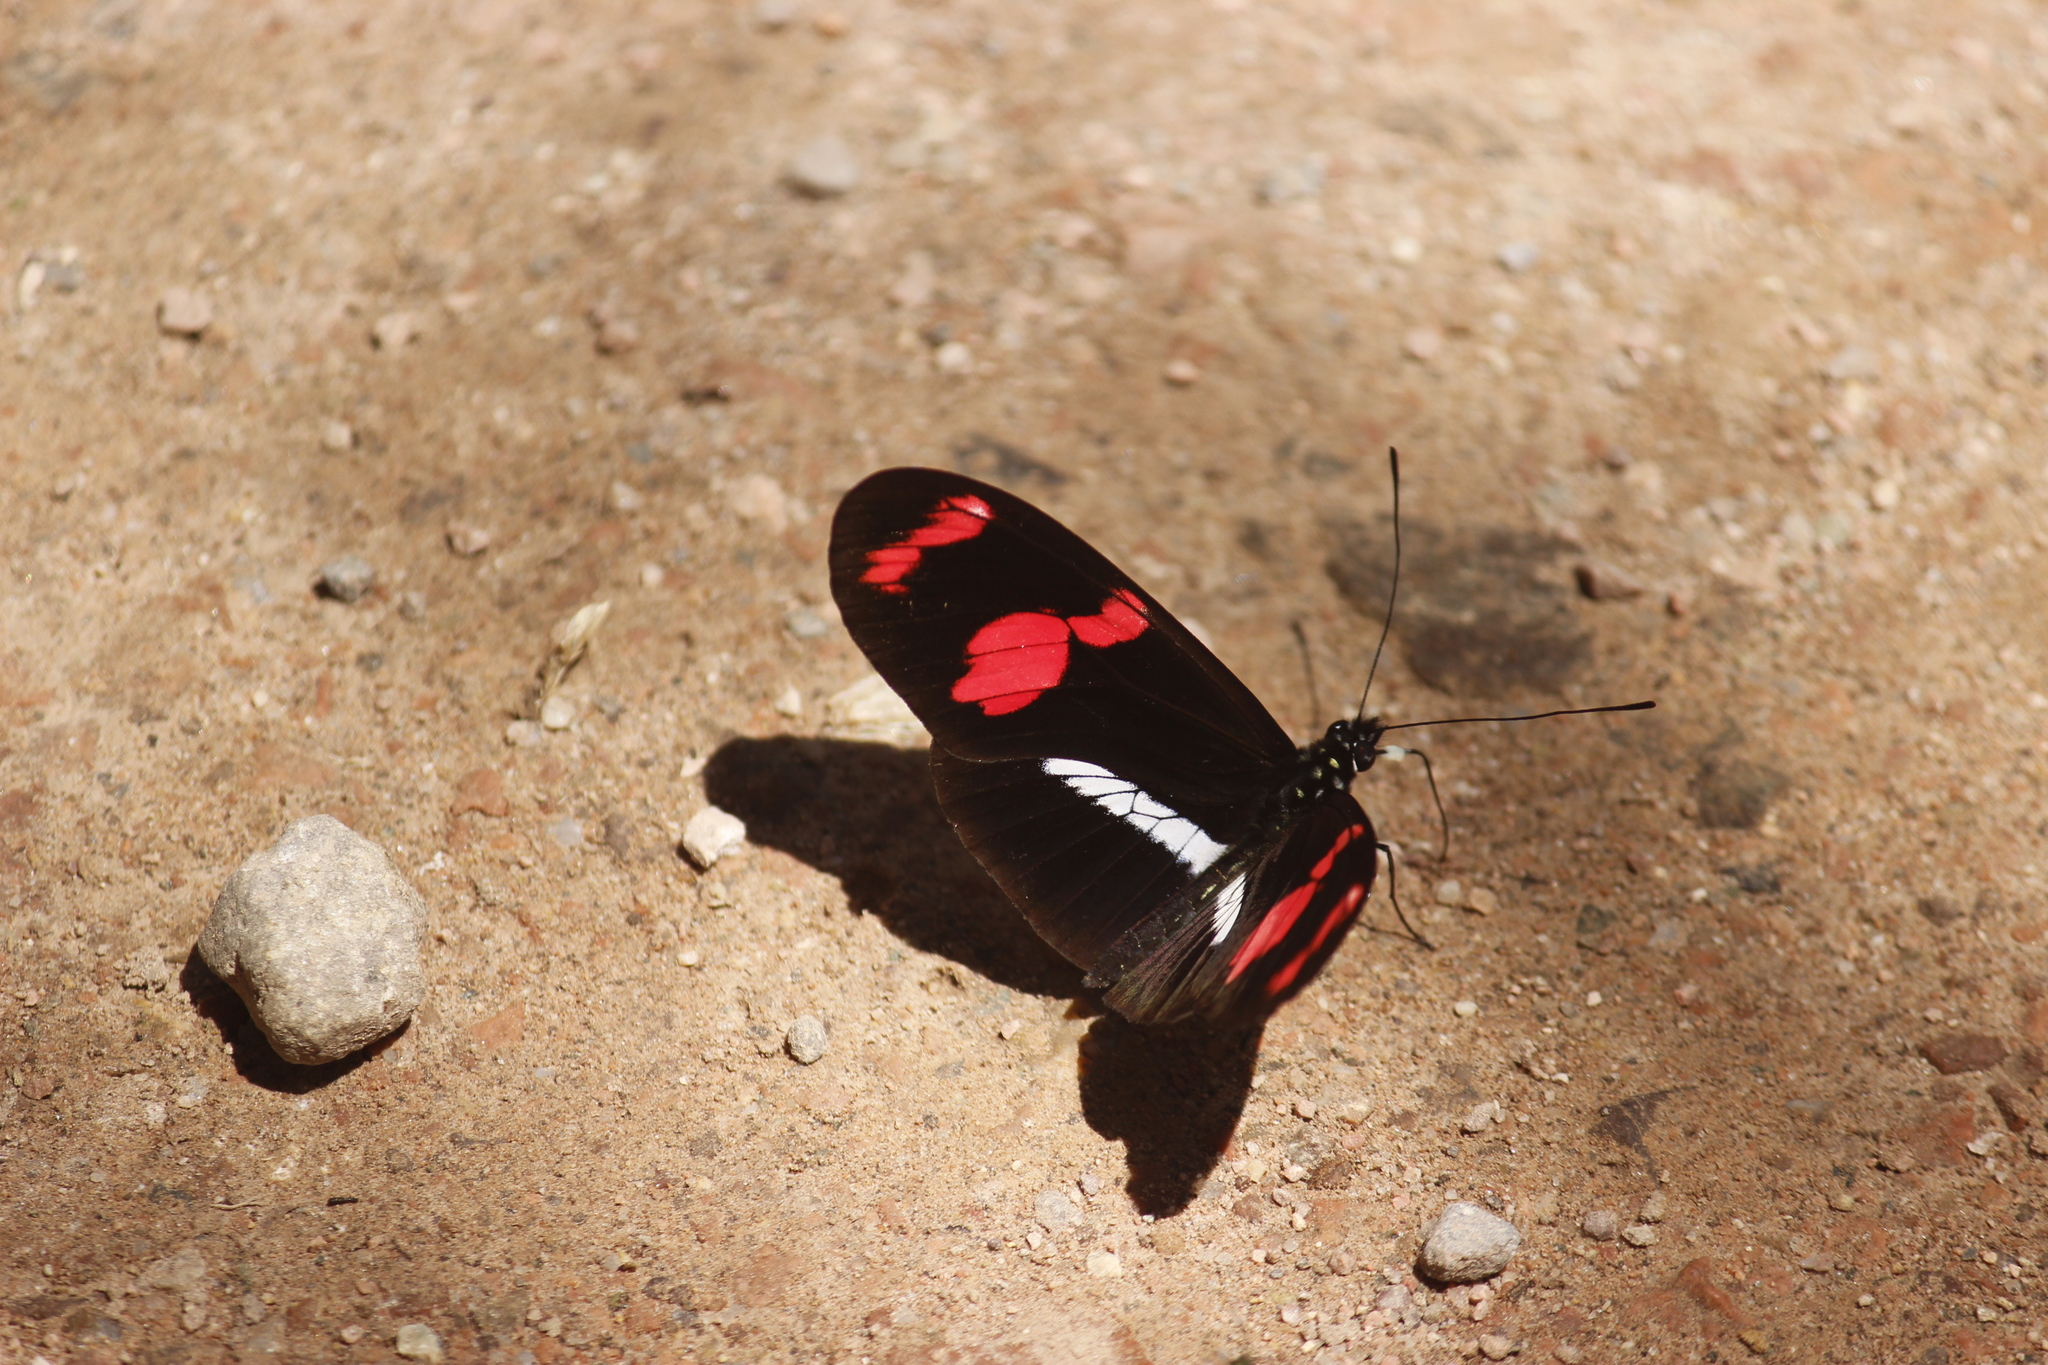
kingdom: Animalia
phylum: Arthropoda
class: Insecta
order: Lepidoptera
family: Nymphalidae
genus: Heliconius
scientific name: Heliconius telesiphe
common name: Telesiphe longwing
